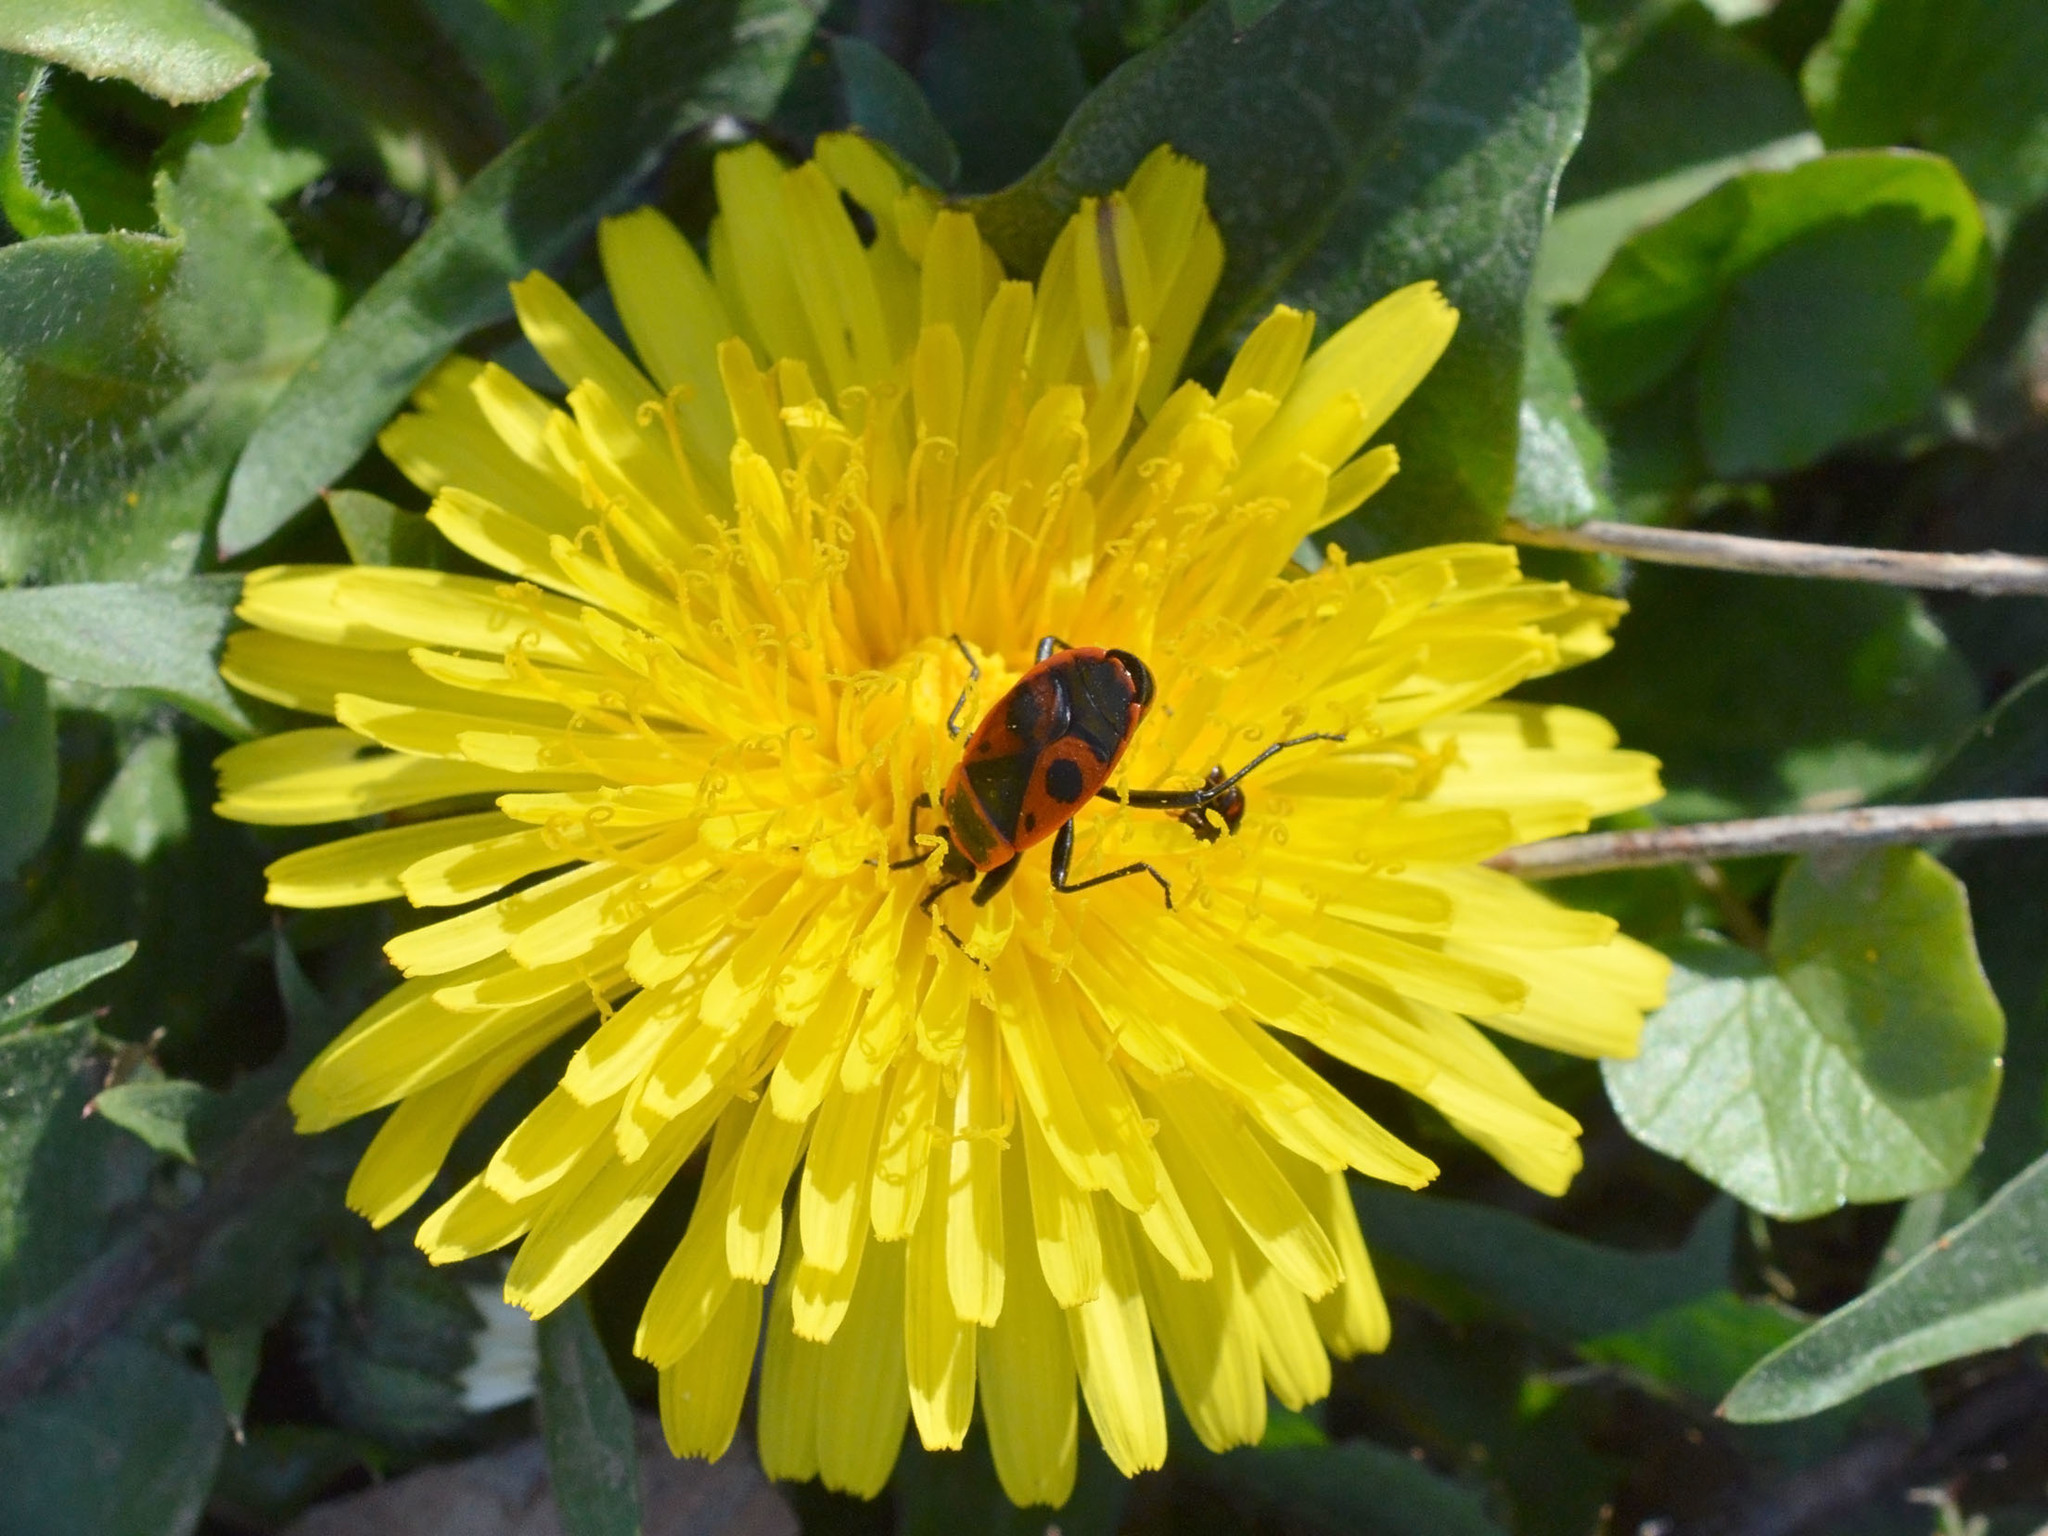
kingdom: Animalia
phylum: Arthropoda
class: Insecta
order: Hemiptera
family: Pyrrhocoridae
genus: Pyrrhocoris
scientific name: Pyrrhocoris apterus
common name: Firebug
